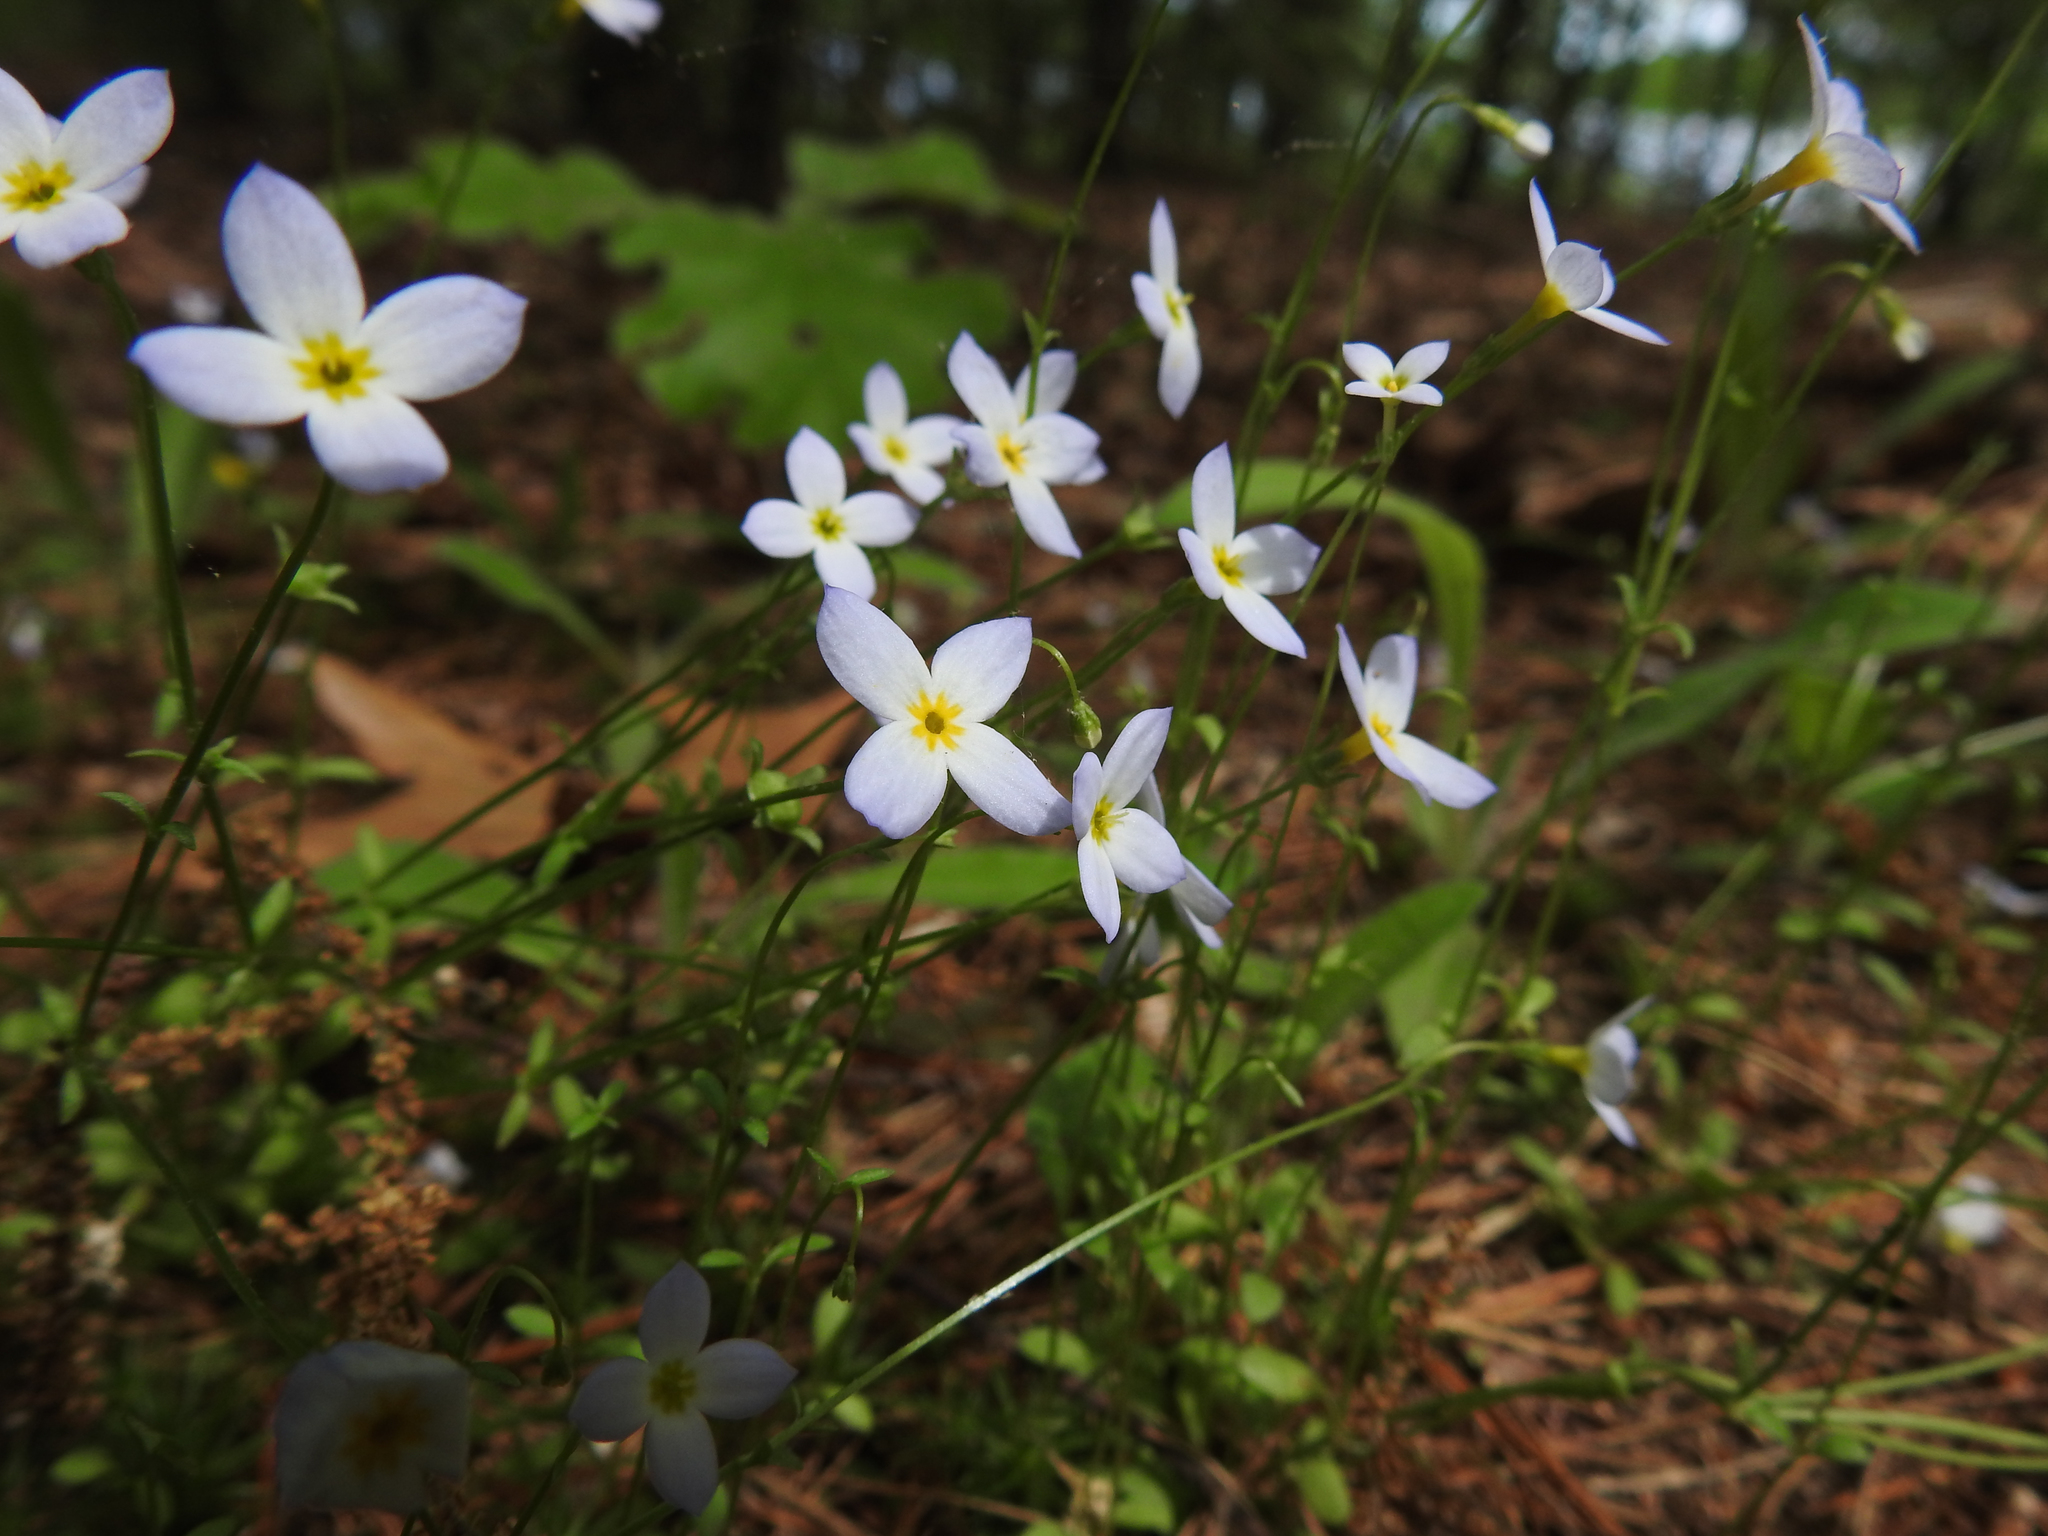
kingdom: Plantae
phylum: Tracheophyta
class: Magnoliopsida
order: Gentianales
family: Rubiaceae
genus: Houstonia
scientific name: Houstonia caerulea
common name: Bluets
